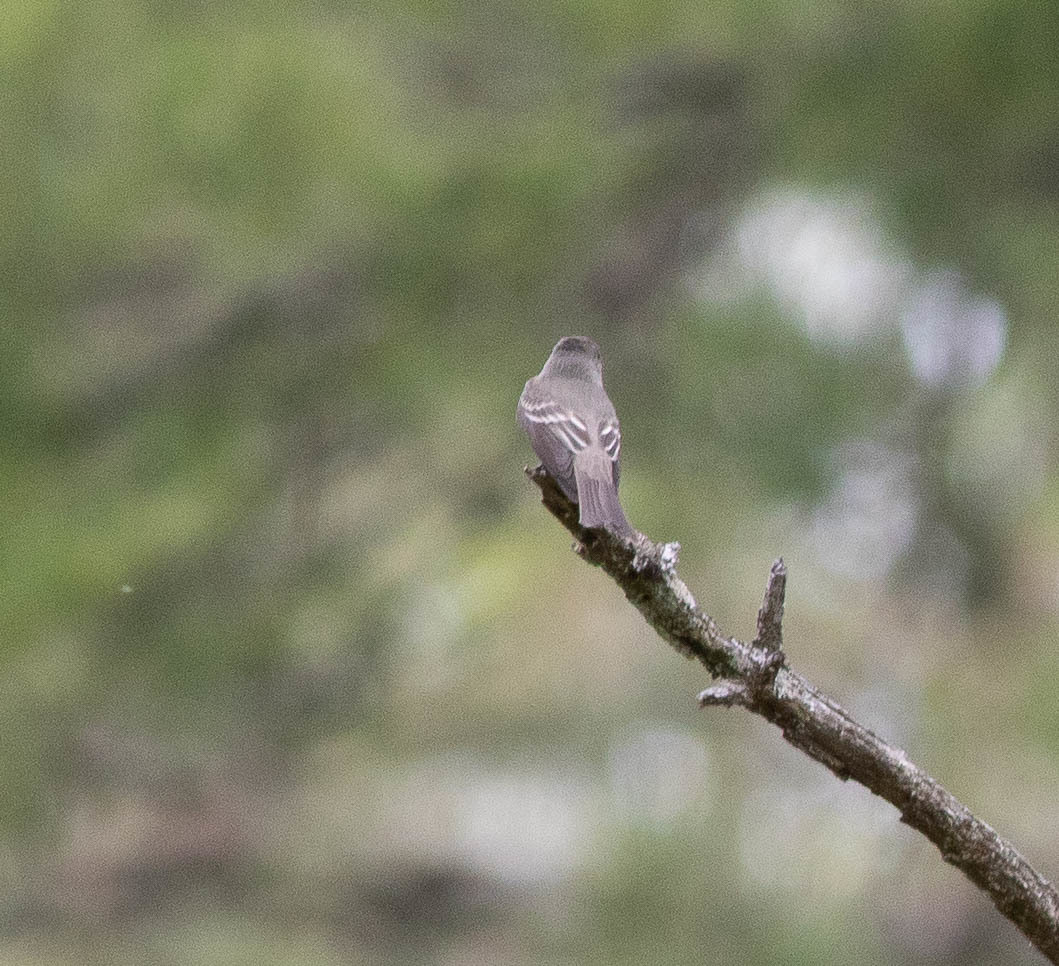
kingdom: Animalia
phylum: Chordata
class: Aves
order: Passeriformes
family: Tyrannidae
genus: Contopus
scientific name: Contopus virens
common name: Eastern wood-pewee
